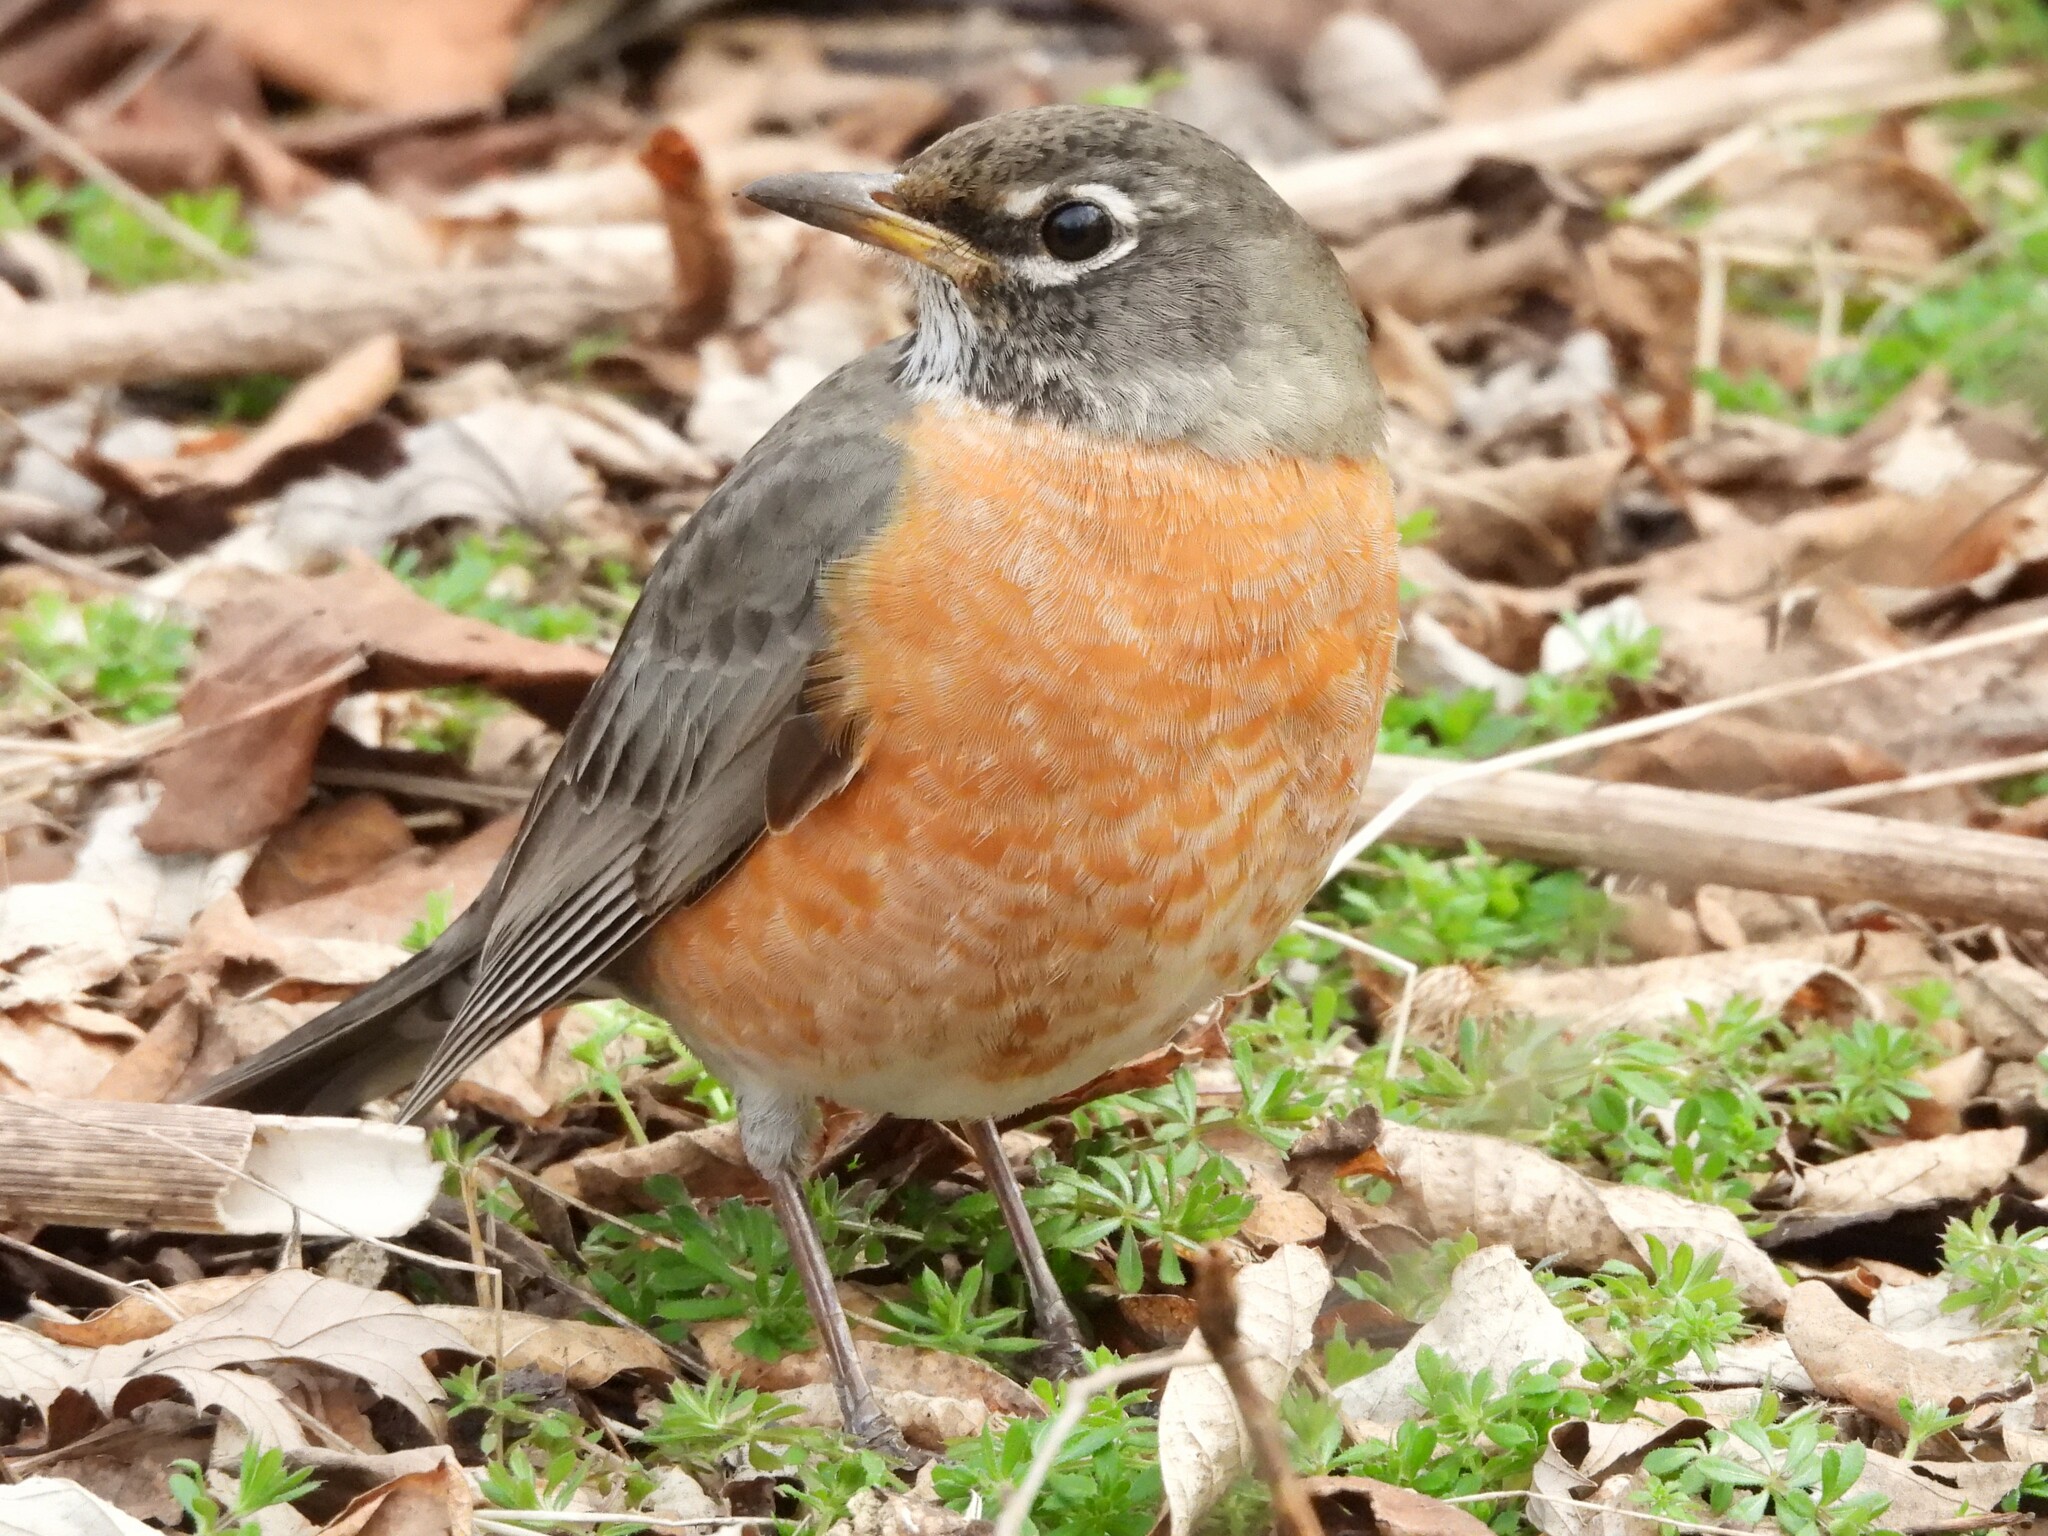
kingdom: Animalia
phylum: Chordata
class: Aves
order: Passeriformes
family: Turdidae
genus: Turdus
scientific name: Turdus migratorius
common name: American robin
